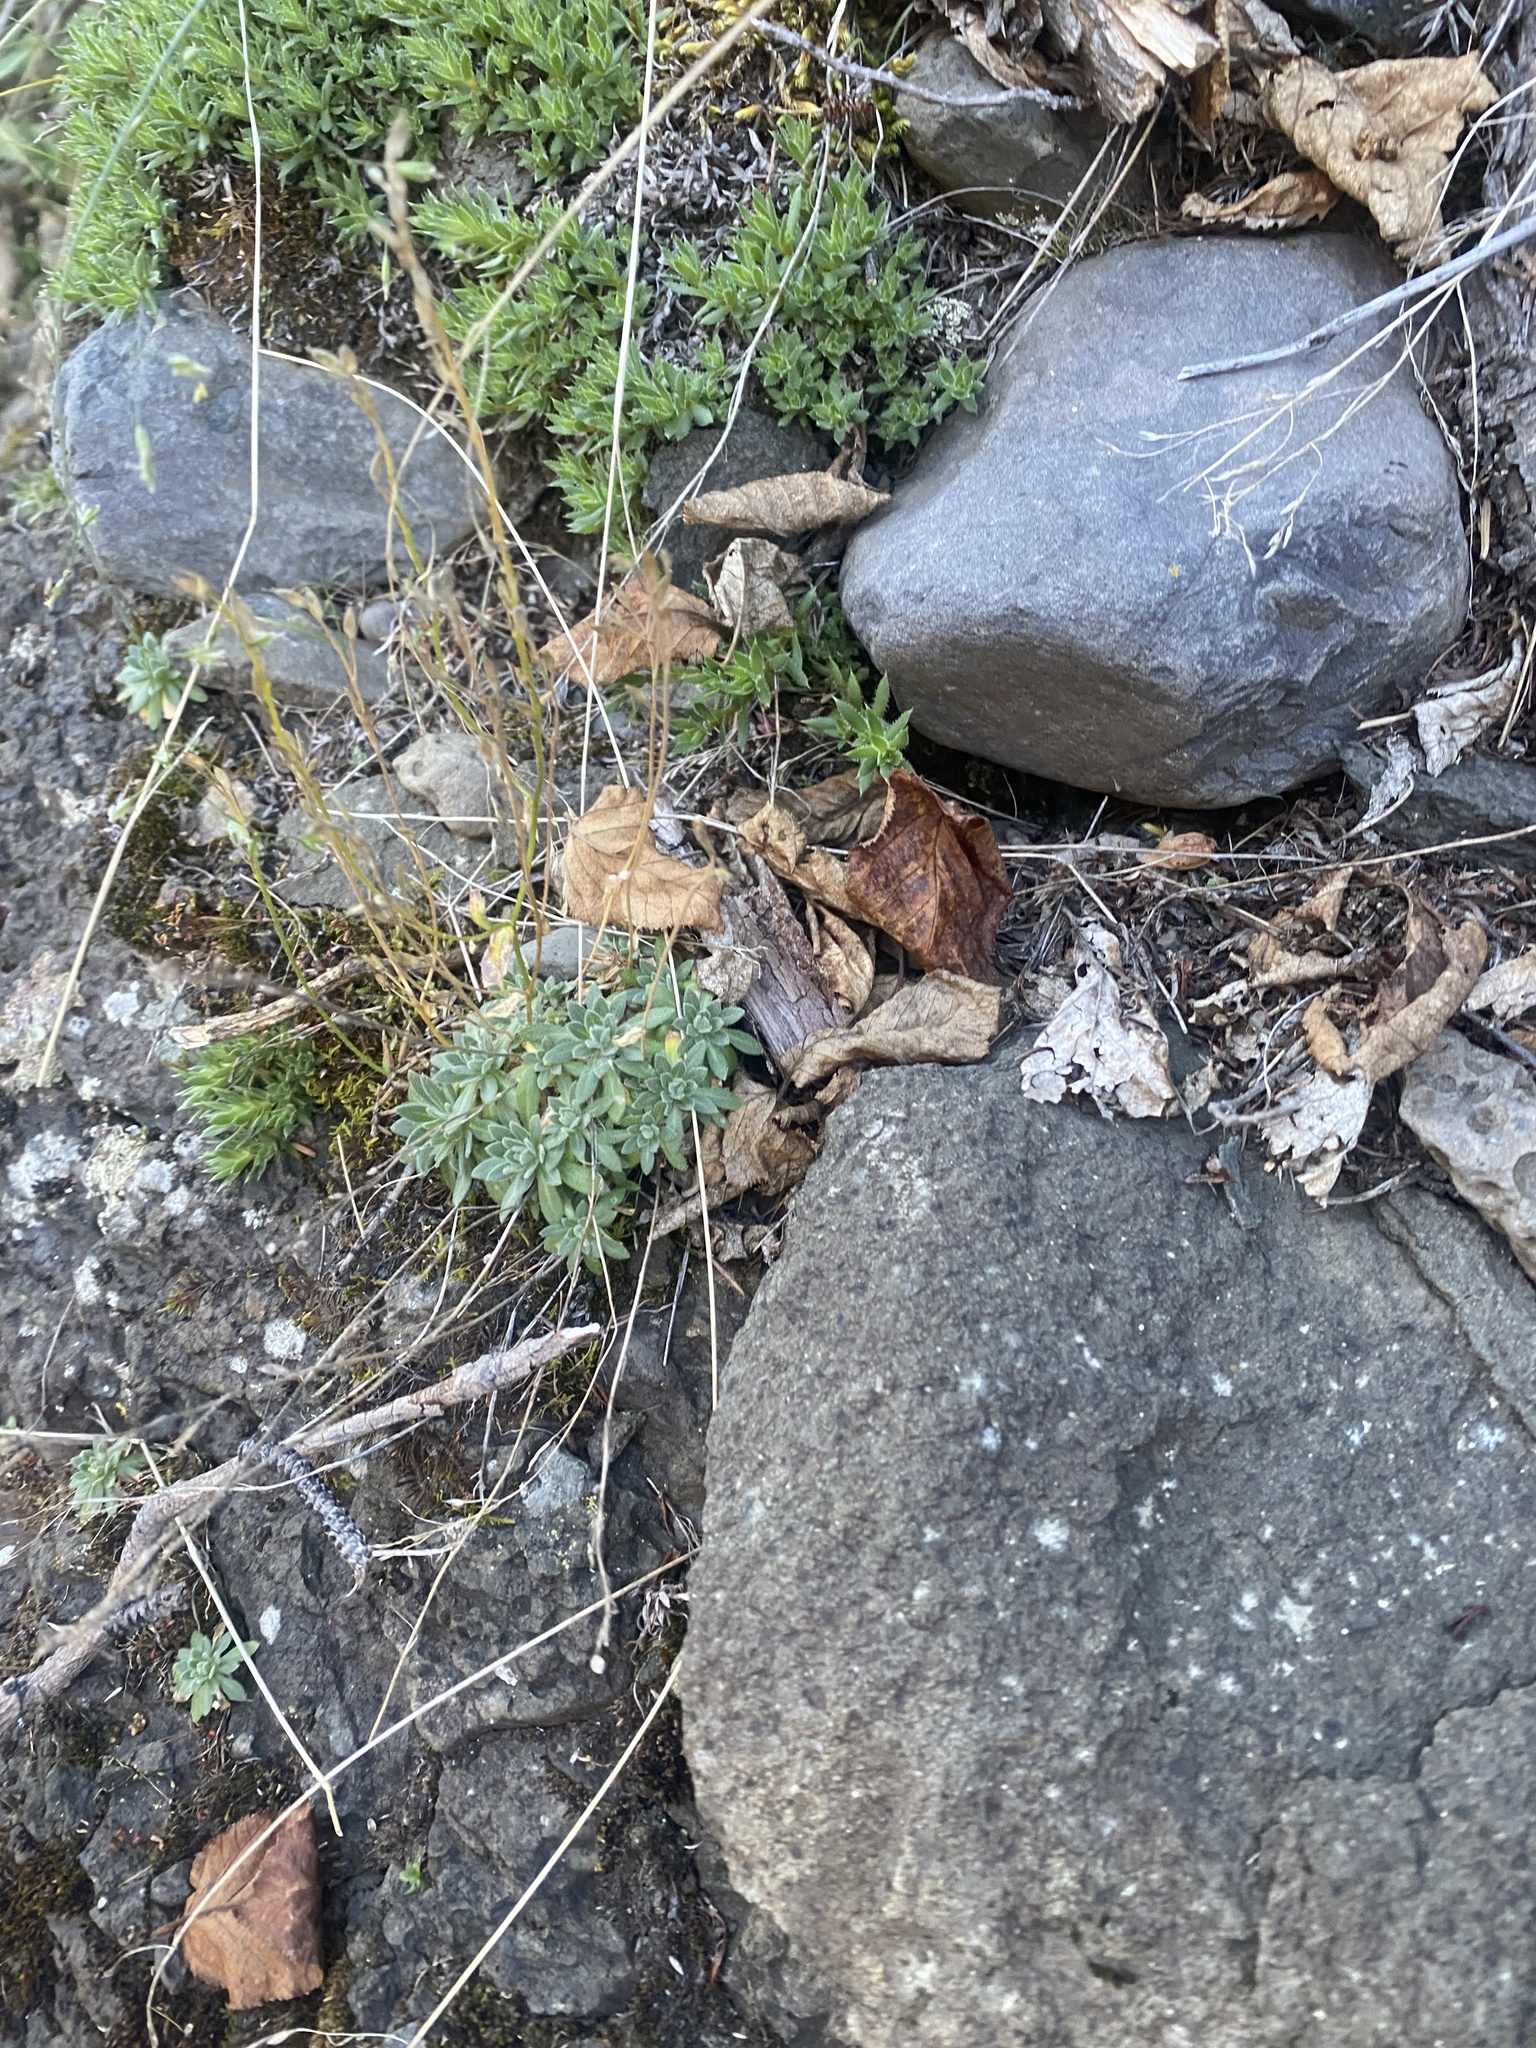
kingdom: Plantae
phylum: Tracheophyta
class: Magnoliopsida
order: Brassicales
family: Brassicaceae
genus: Draba
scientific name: Draba cinerea
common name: Ash-coloured whitlow-grass
